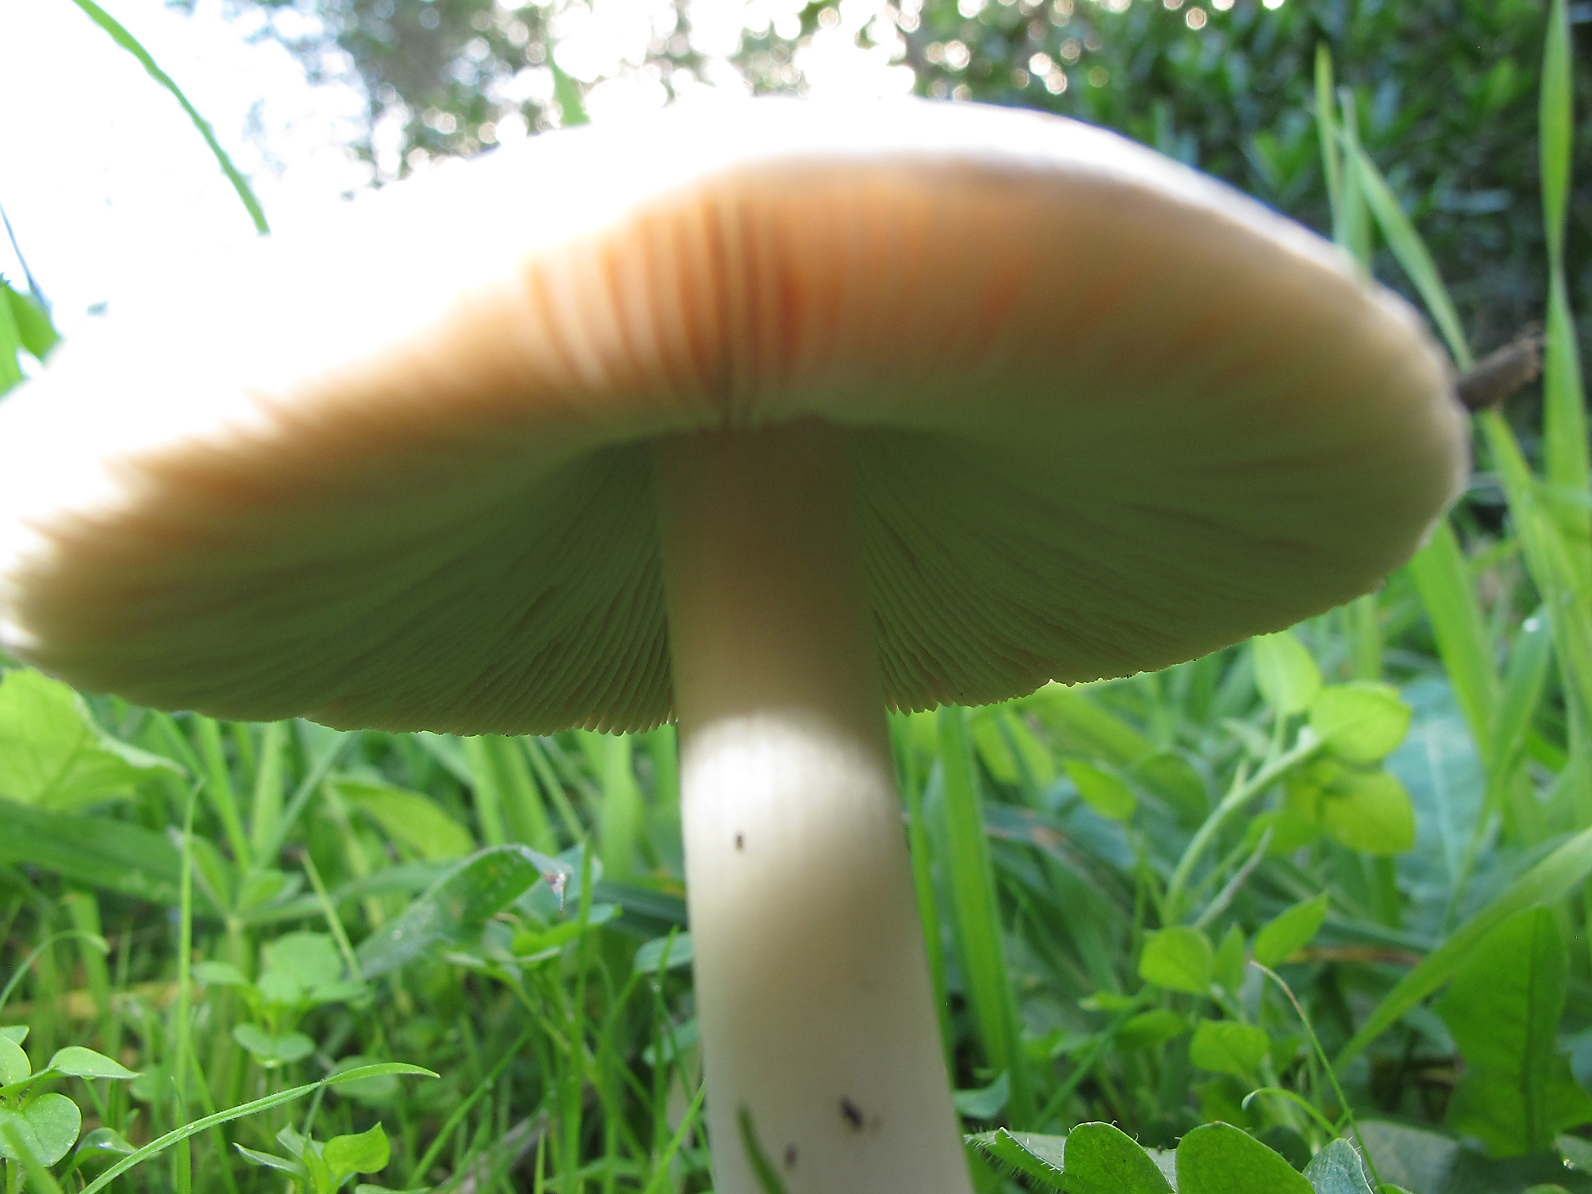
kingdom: Fungi
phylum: Basidiomycota
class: Agaricomycetes
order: Agaricales
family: Pluteaceae
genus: Volvopluteus
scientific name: Volvopluteus gloiocephalus
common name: Stubble rosegill
